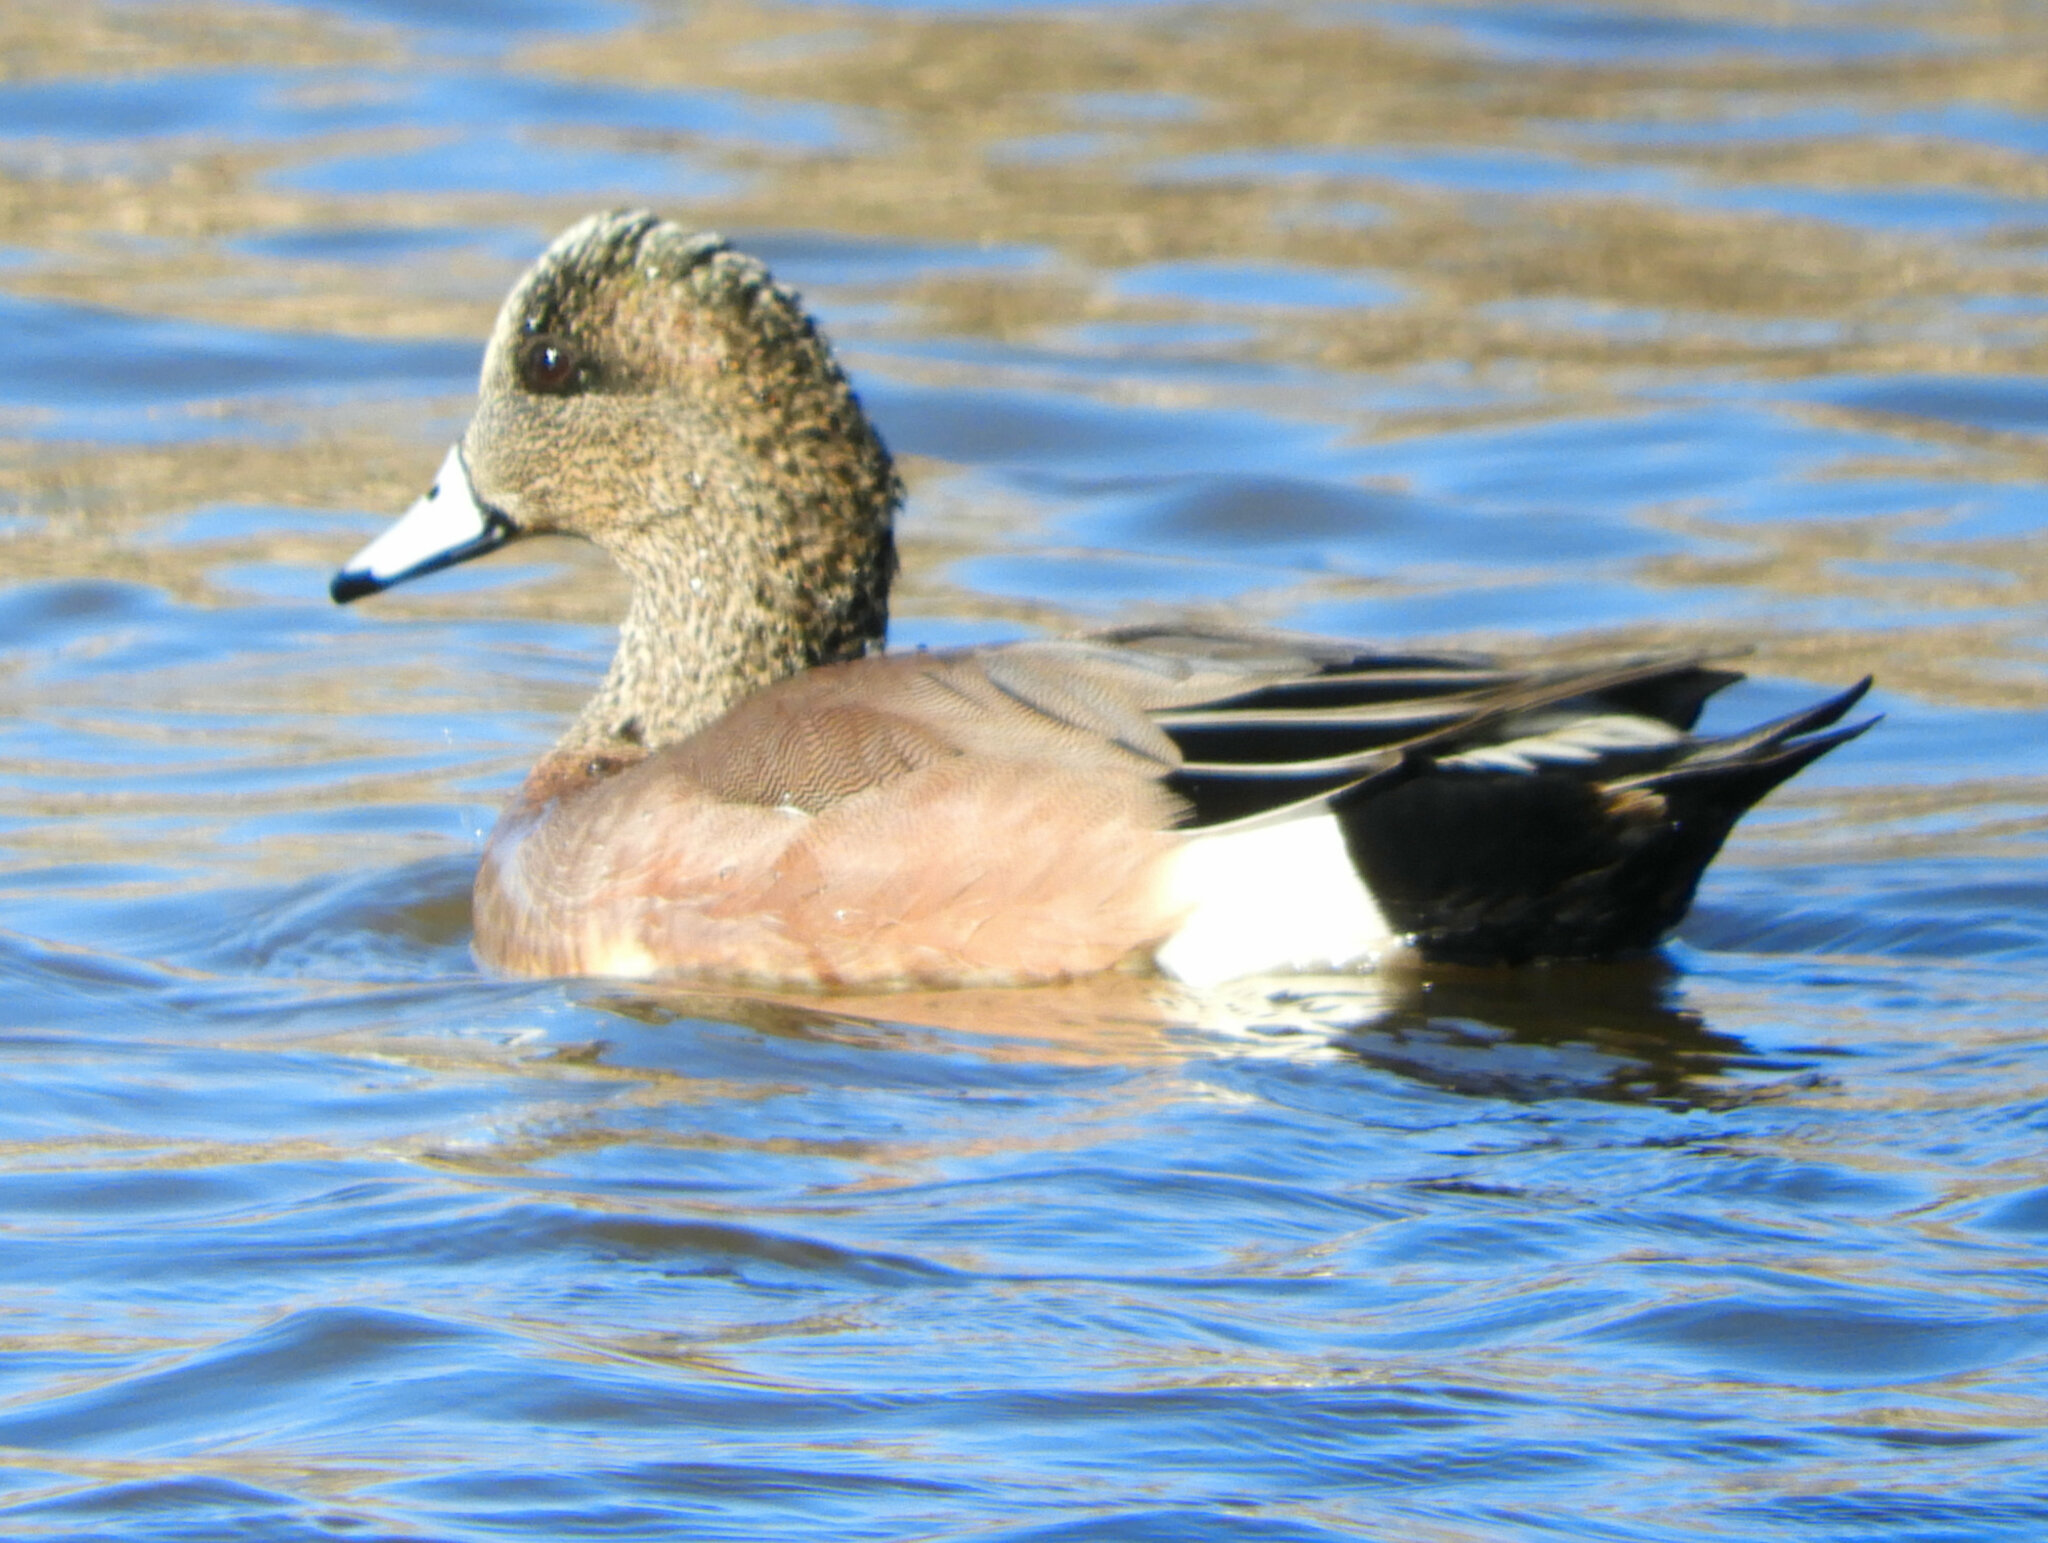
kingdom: Animalia
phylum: Chordata
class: Aves
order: Anseriformes
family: Anatidae
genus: Mareca
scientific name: Mareca americana
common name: American wigeon
